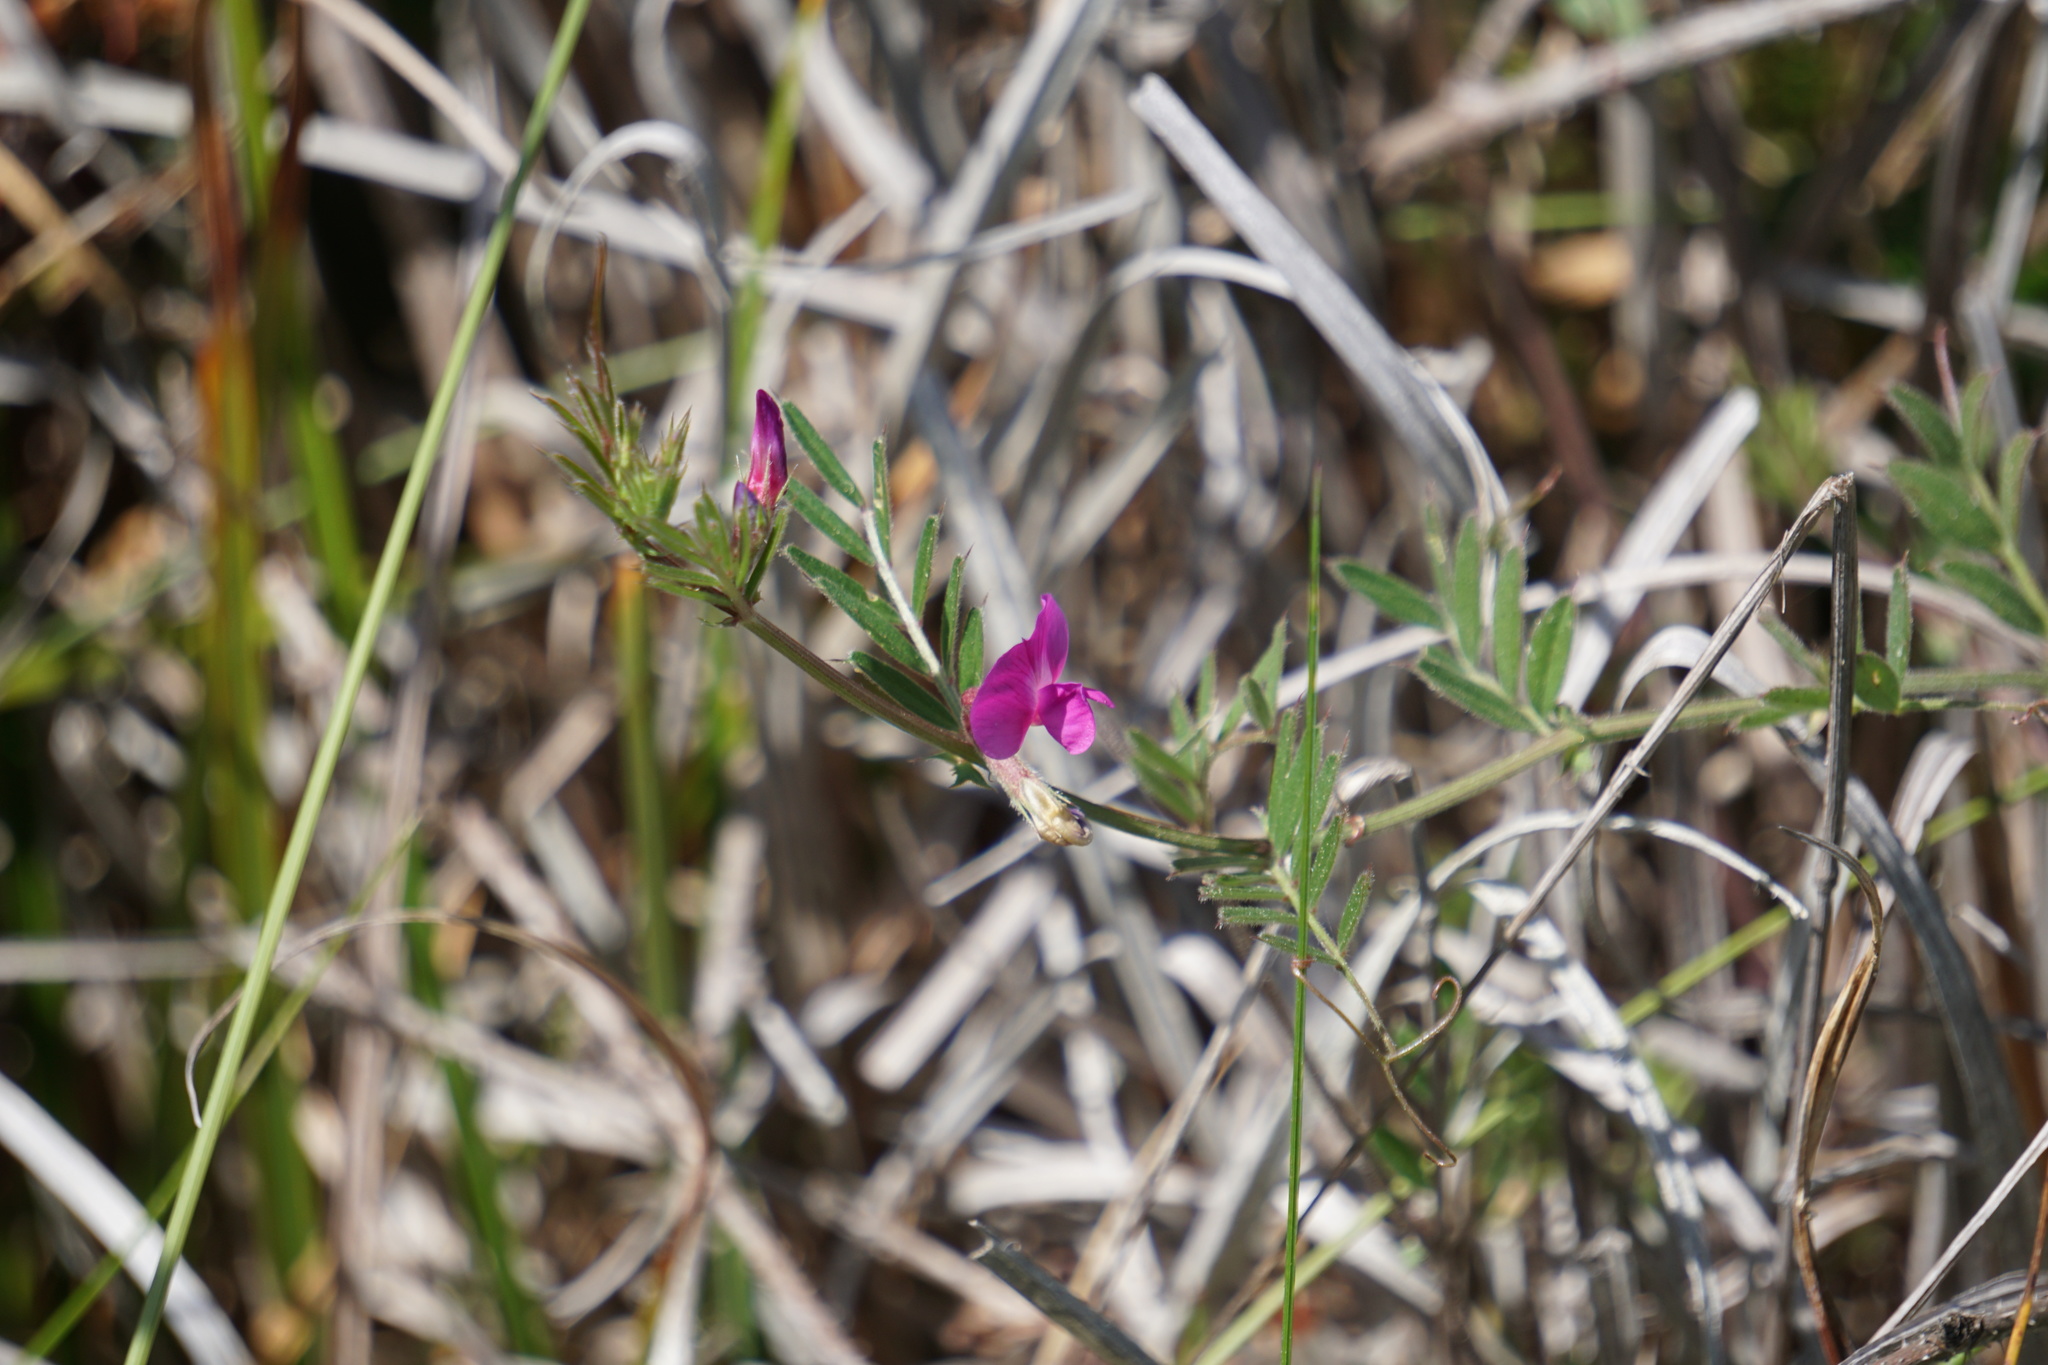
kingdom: Plantae
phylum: Tracheophyta
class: Magnoliopsida
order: Fabales
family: Fabaceae
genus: Vicia
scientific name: Vicia sativa
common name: Garden vetch
